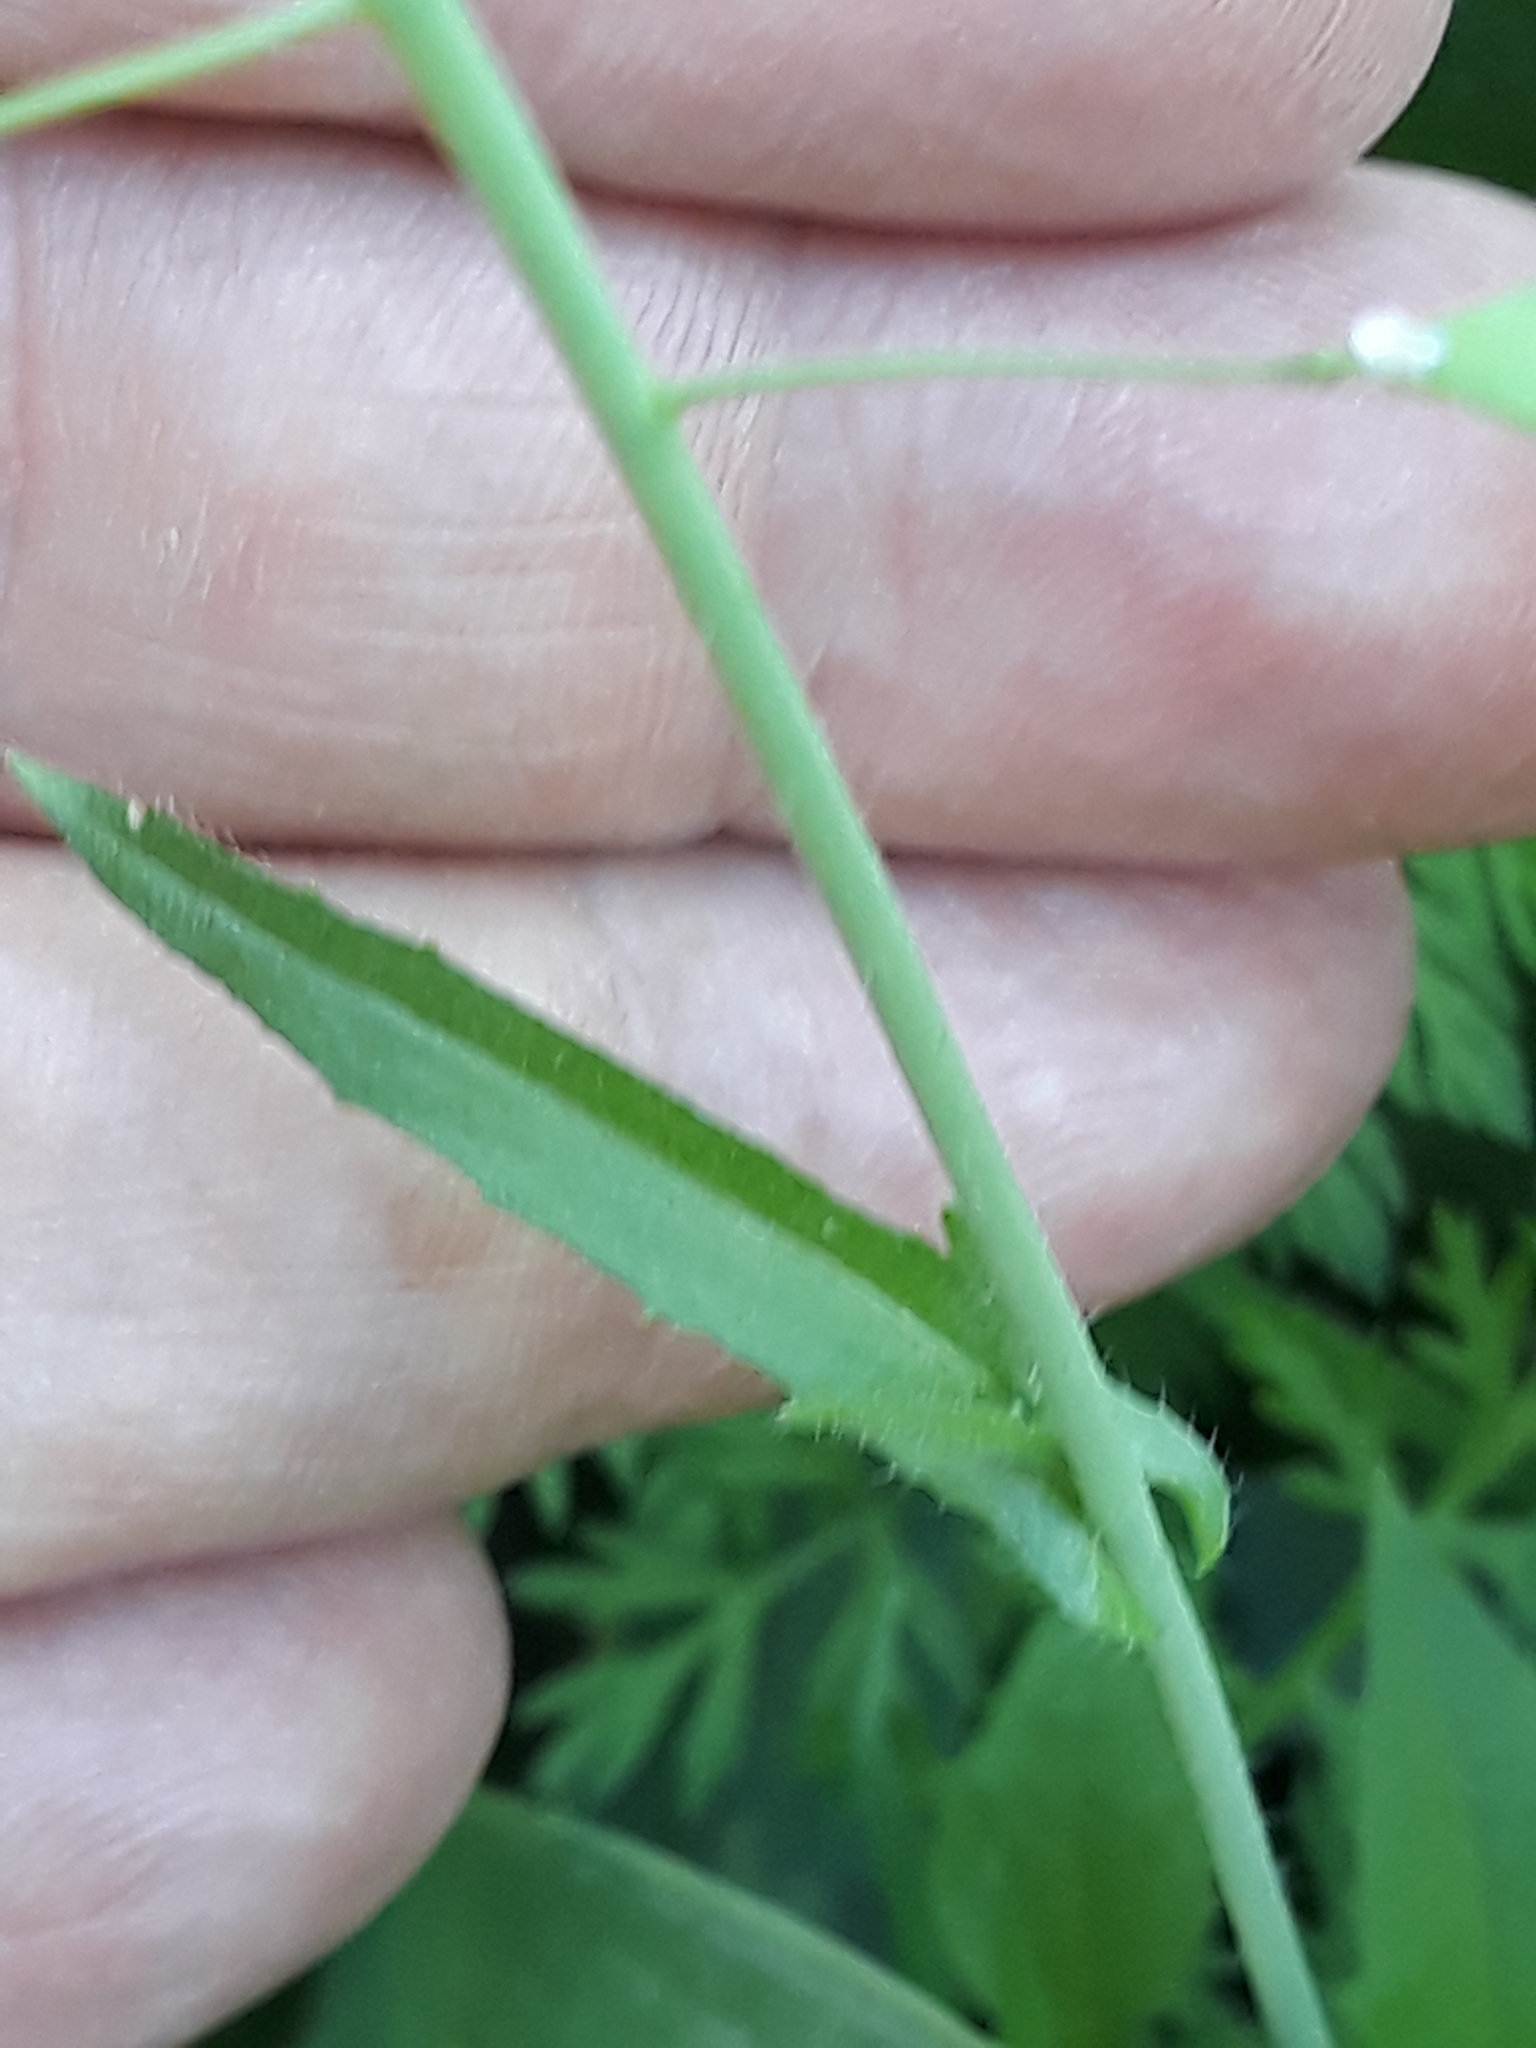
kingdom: Plantae
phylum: Tracheophyta
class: Magnoliopsida
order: Brassicales
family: Brassicaceae
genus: Capsella
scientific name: Capsella bursa-pastoris
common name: Shepherd's purse
